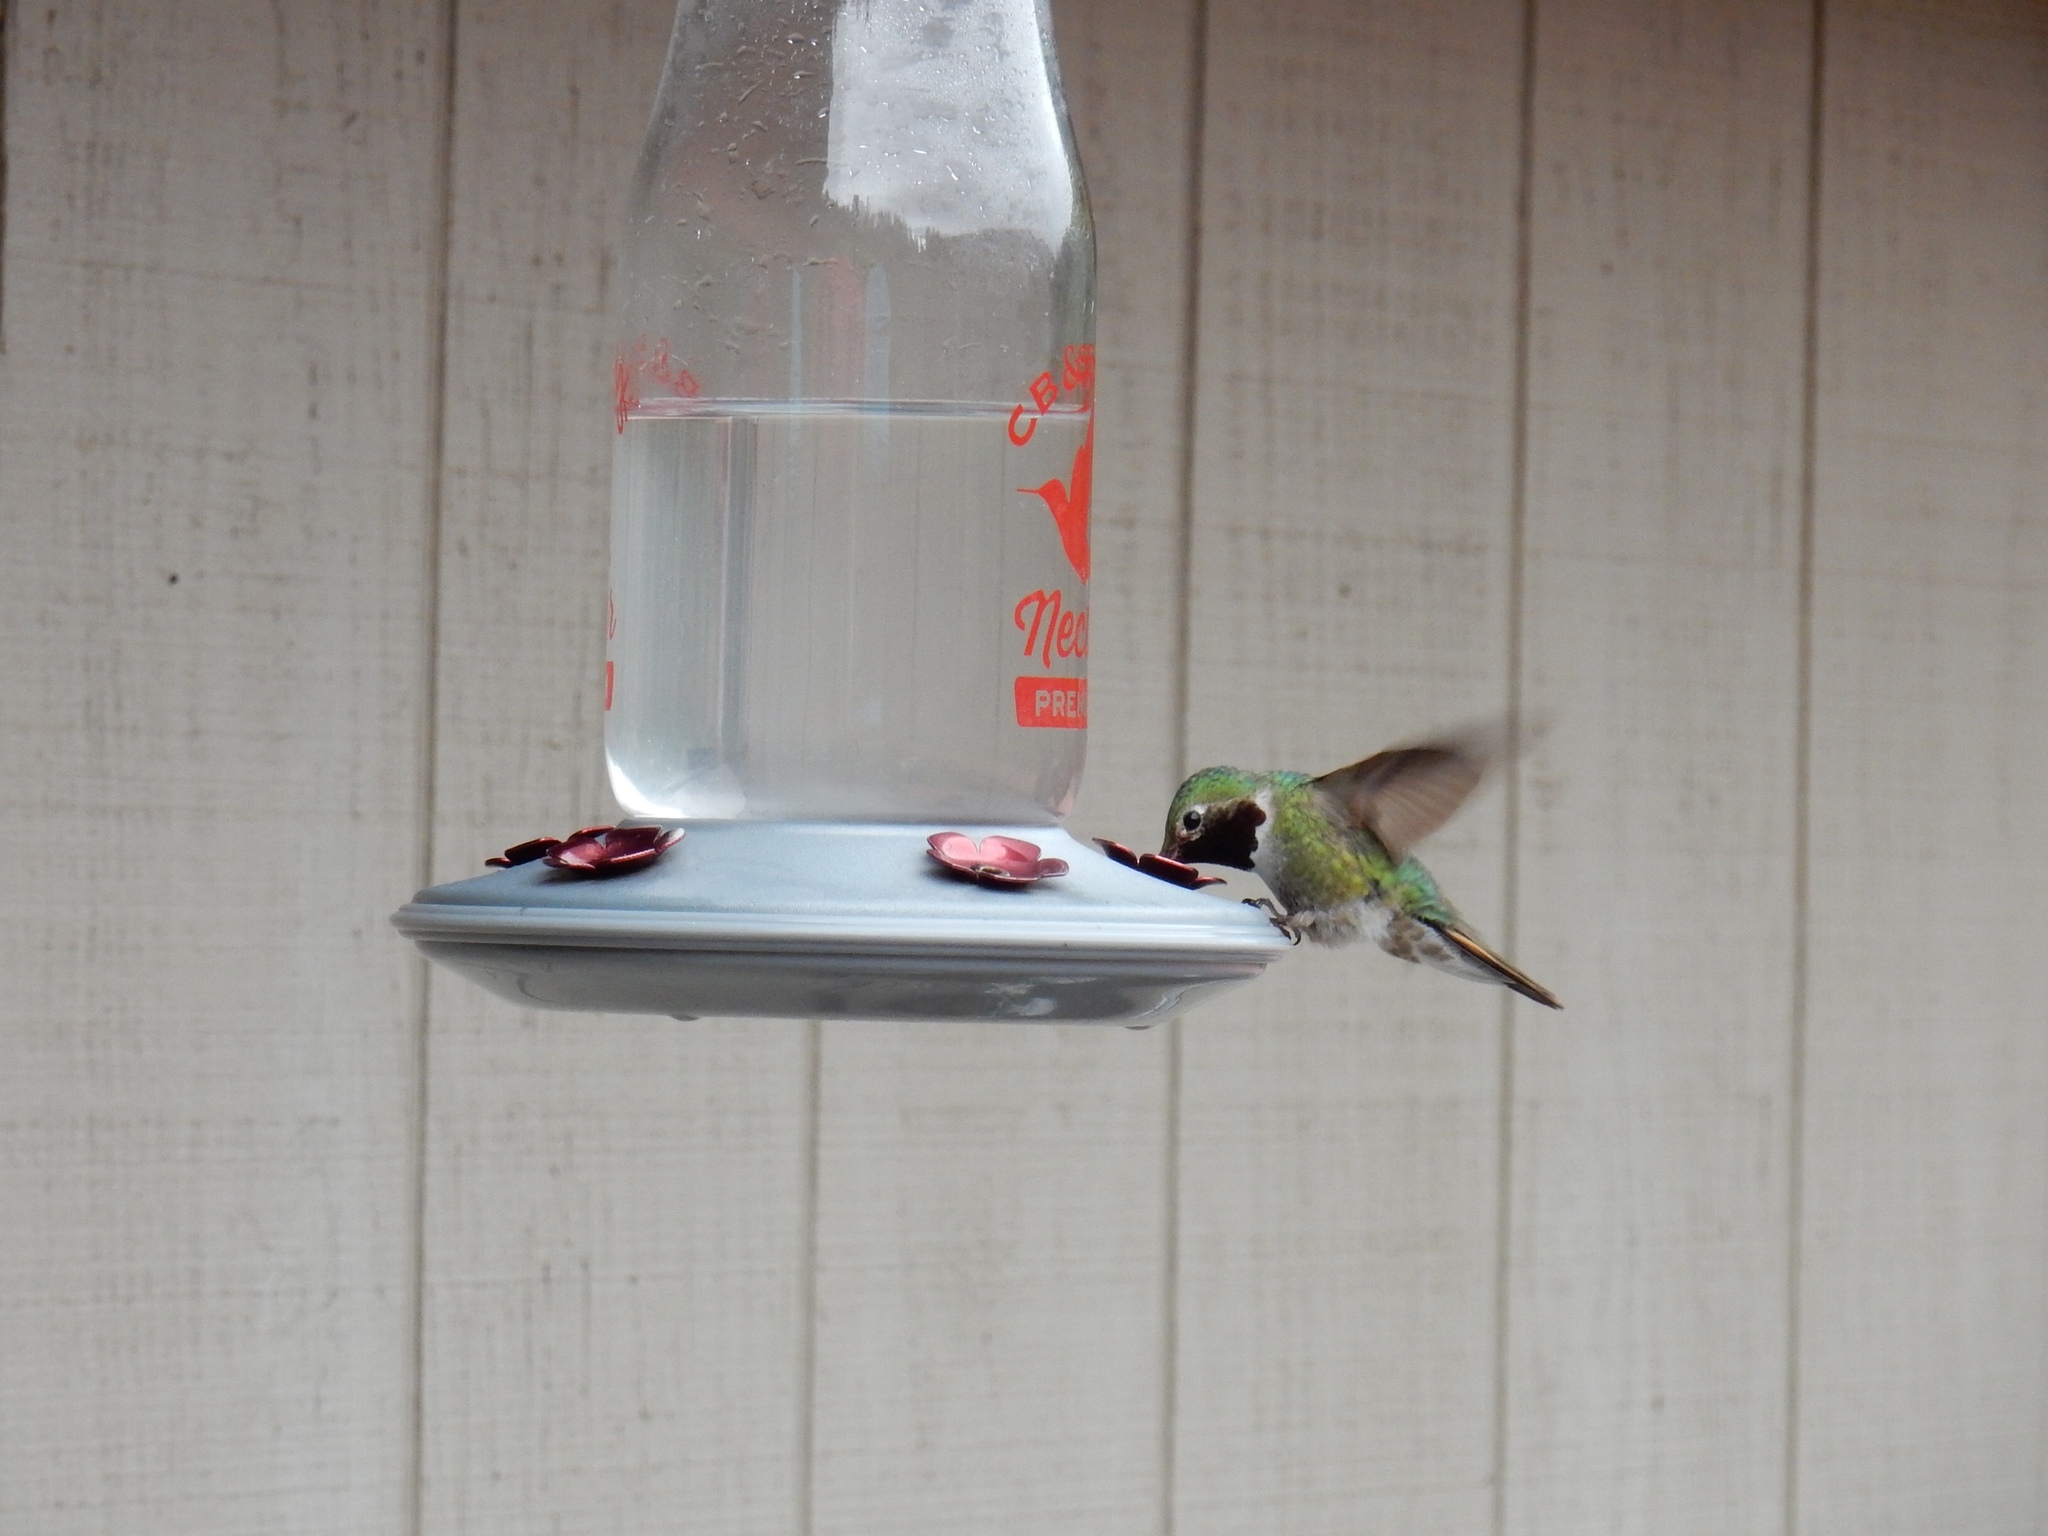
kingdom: Animalia
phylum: Chordata
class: Aves
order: Apodiformes
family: Trochilidae
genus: Selasphorus
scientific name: Selasphorus platycercus
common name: Broad-tailed hummingbird
